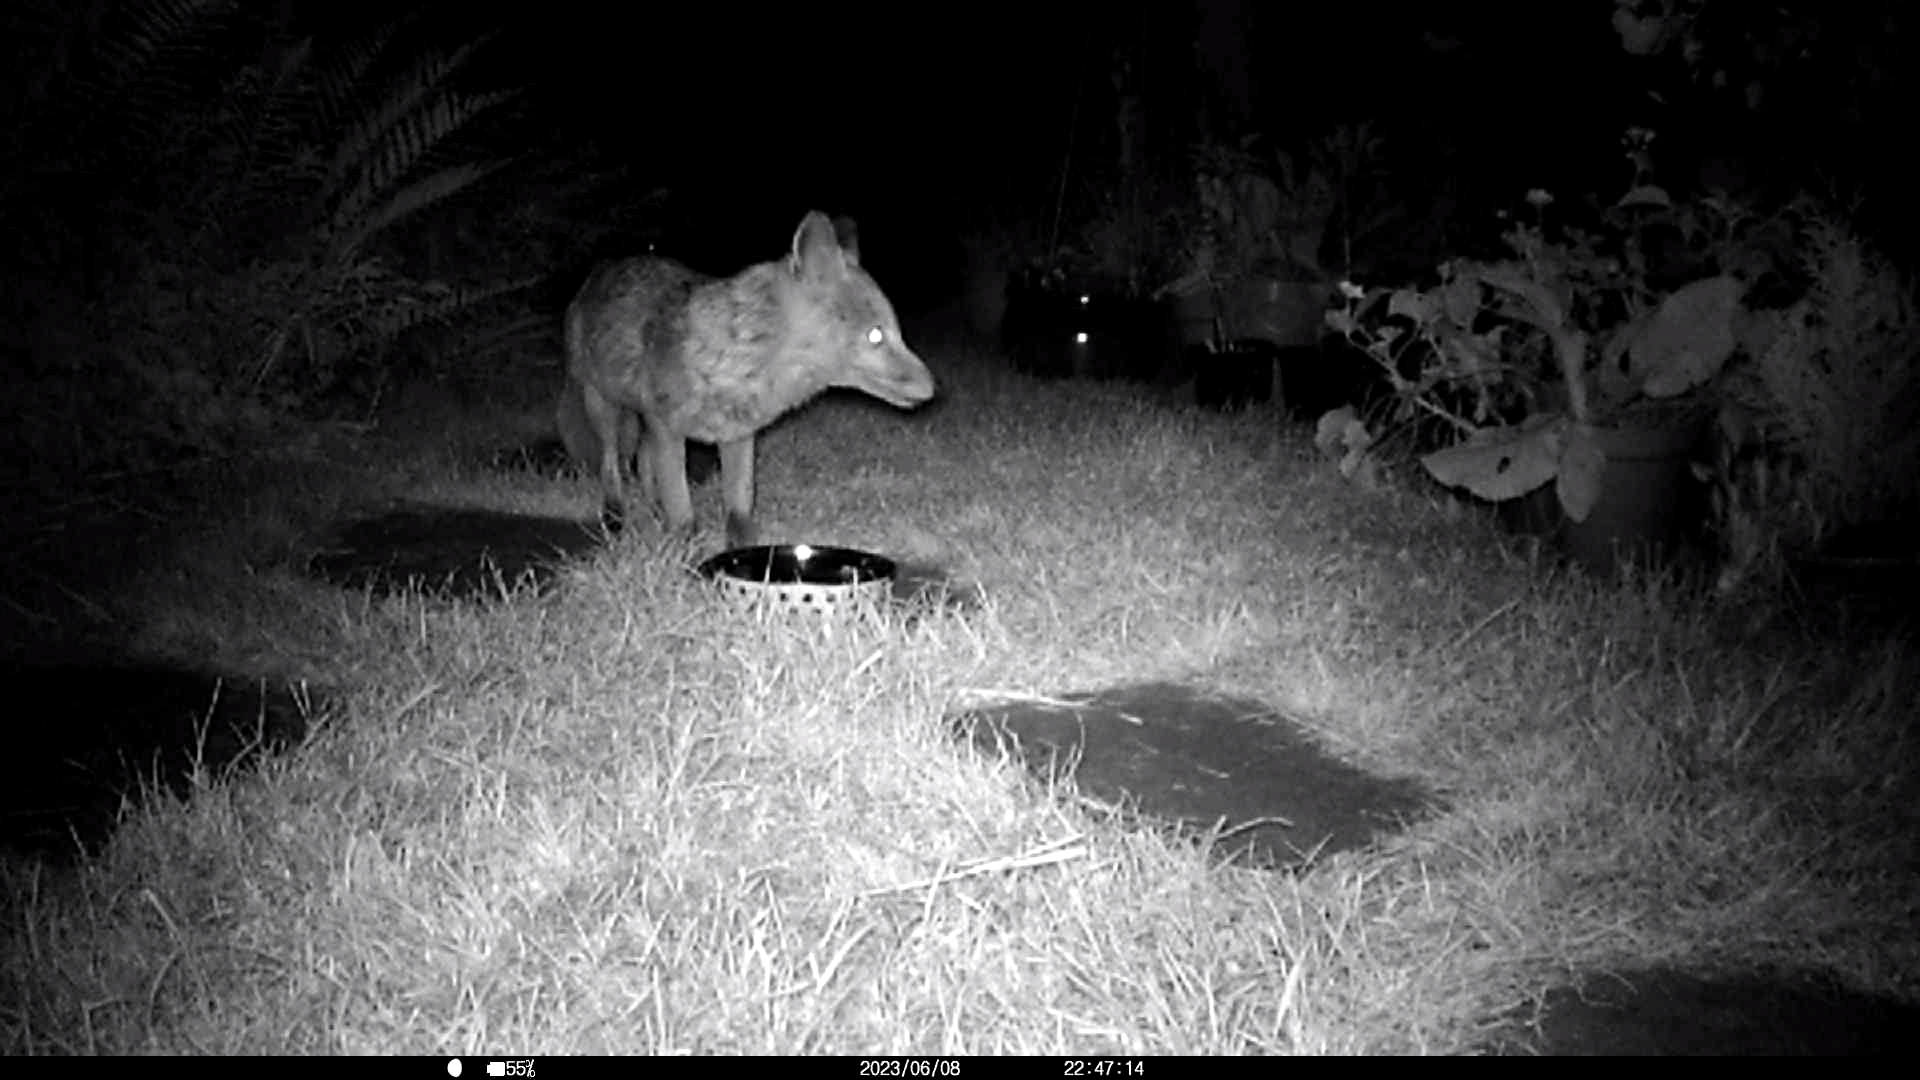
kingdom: Animalia
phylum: Chordata
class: Mammalia
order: Carnivora
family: Canidae
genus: Vulpes
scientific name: Vulpes vulpes
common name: Red fox
